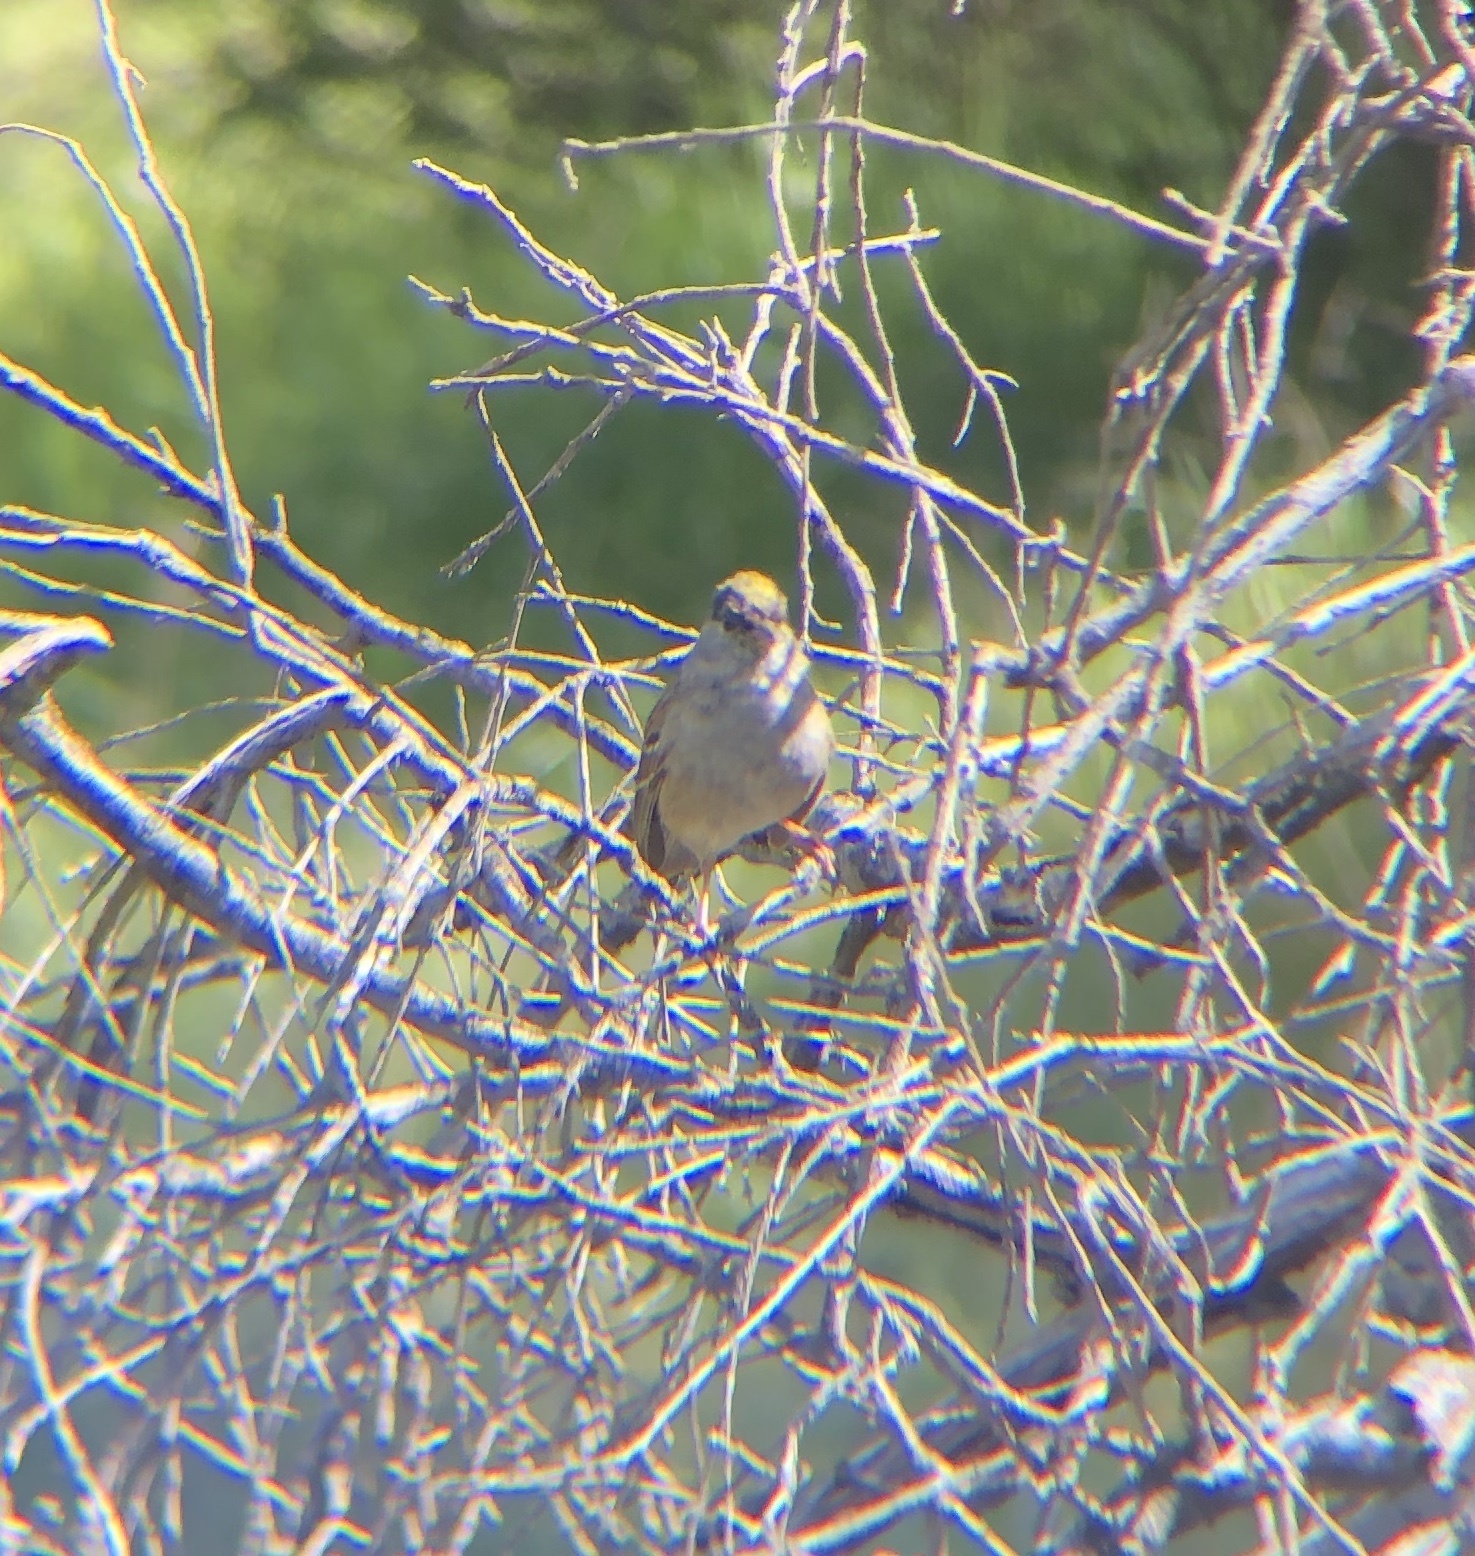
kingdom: Animalia
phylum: Chordata
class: Aves
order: Passeriformes
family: Passerellidae
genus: Zonotrichia
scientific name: Zonotrichia atricapilla
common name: Golden-crowned sparrow
